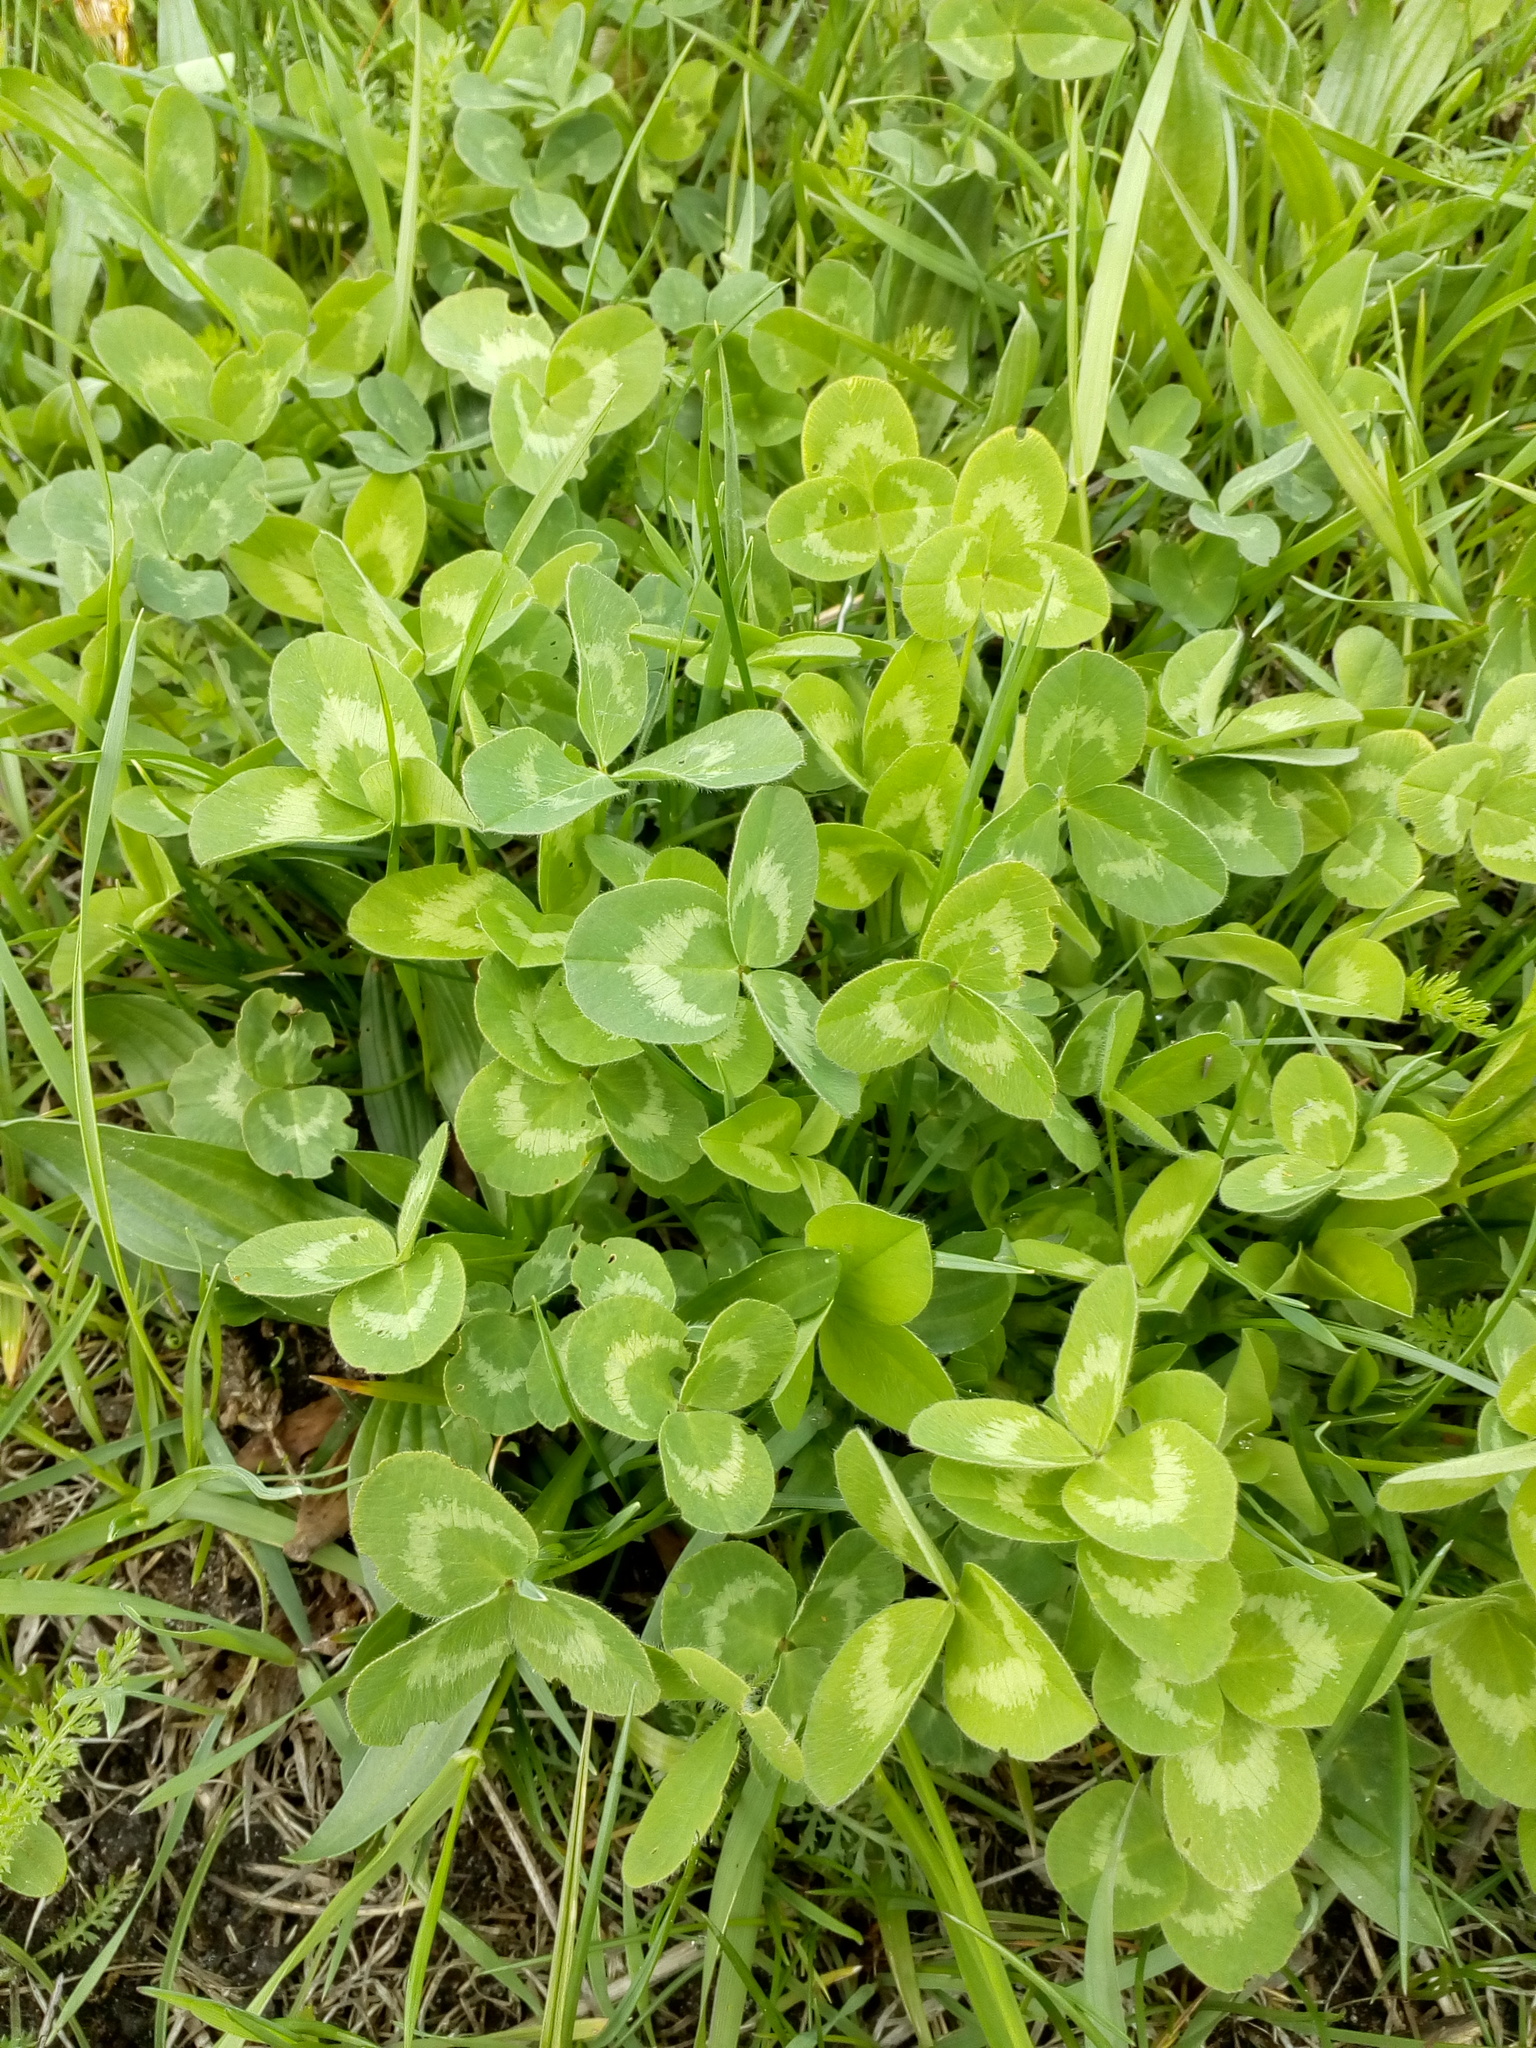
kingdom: Plantae
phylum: Tracheophyta
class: Magnoliopsida
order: Fabales
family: Fabaceae
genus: Trifolium
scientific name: Trifolium pratense
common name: Red clover
